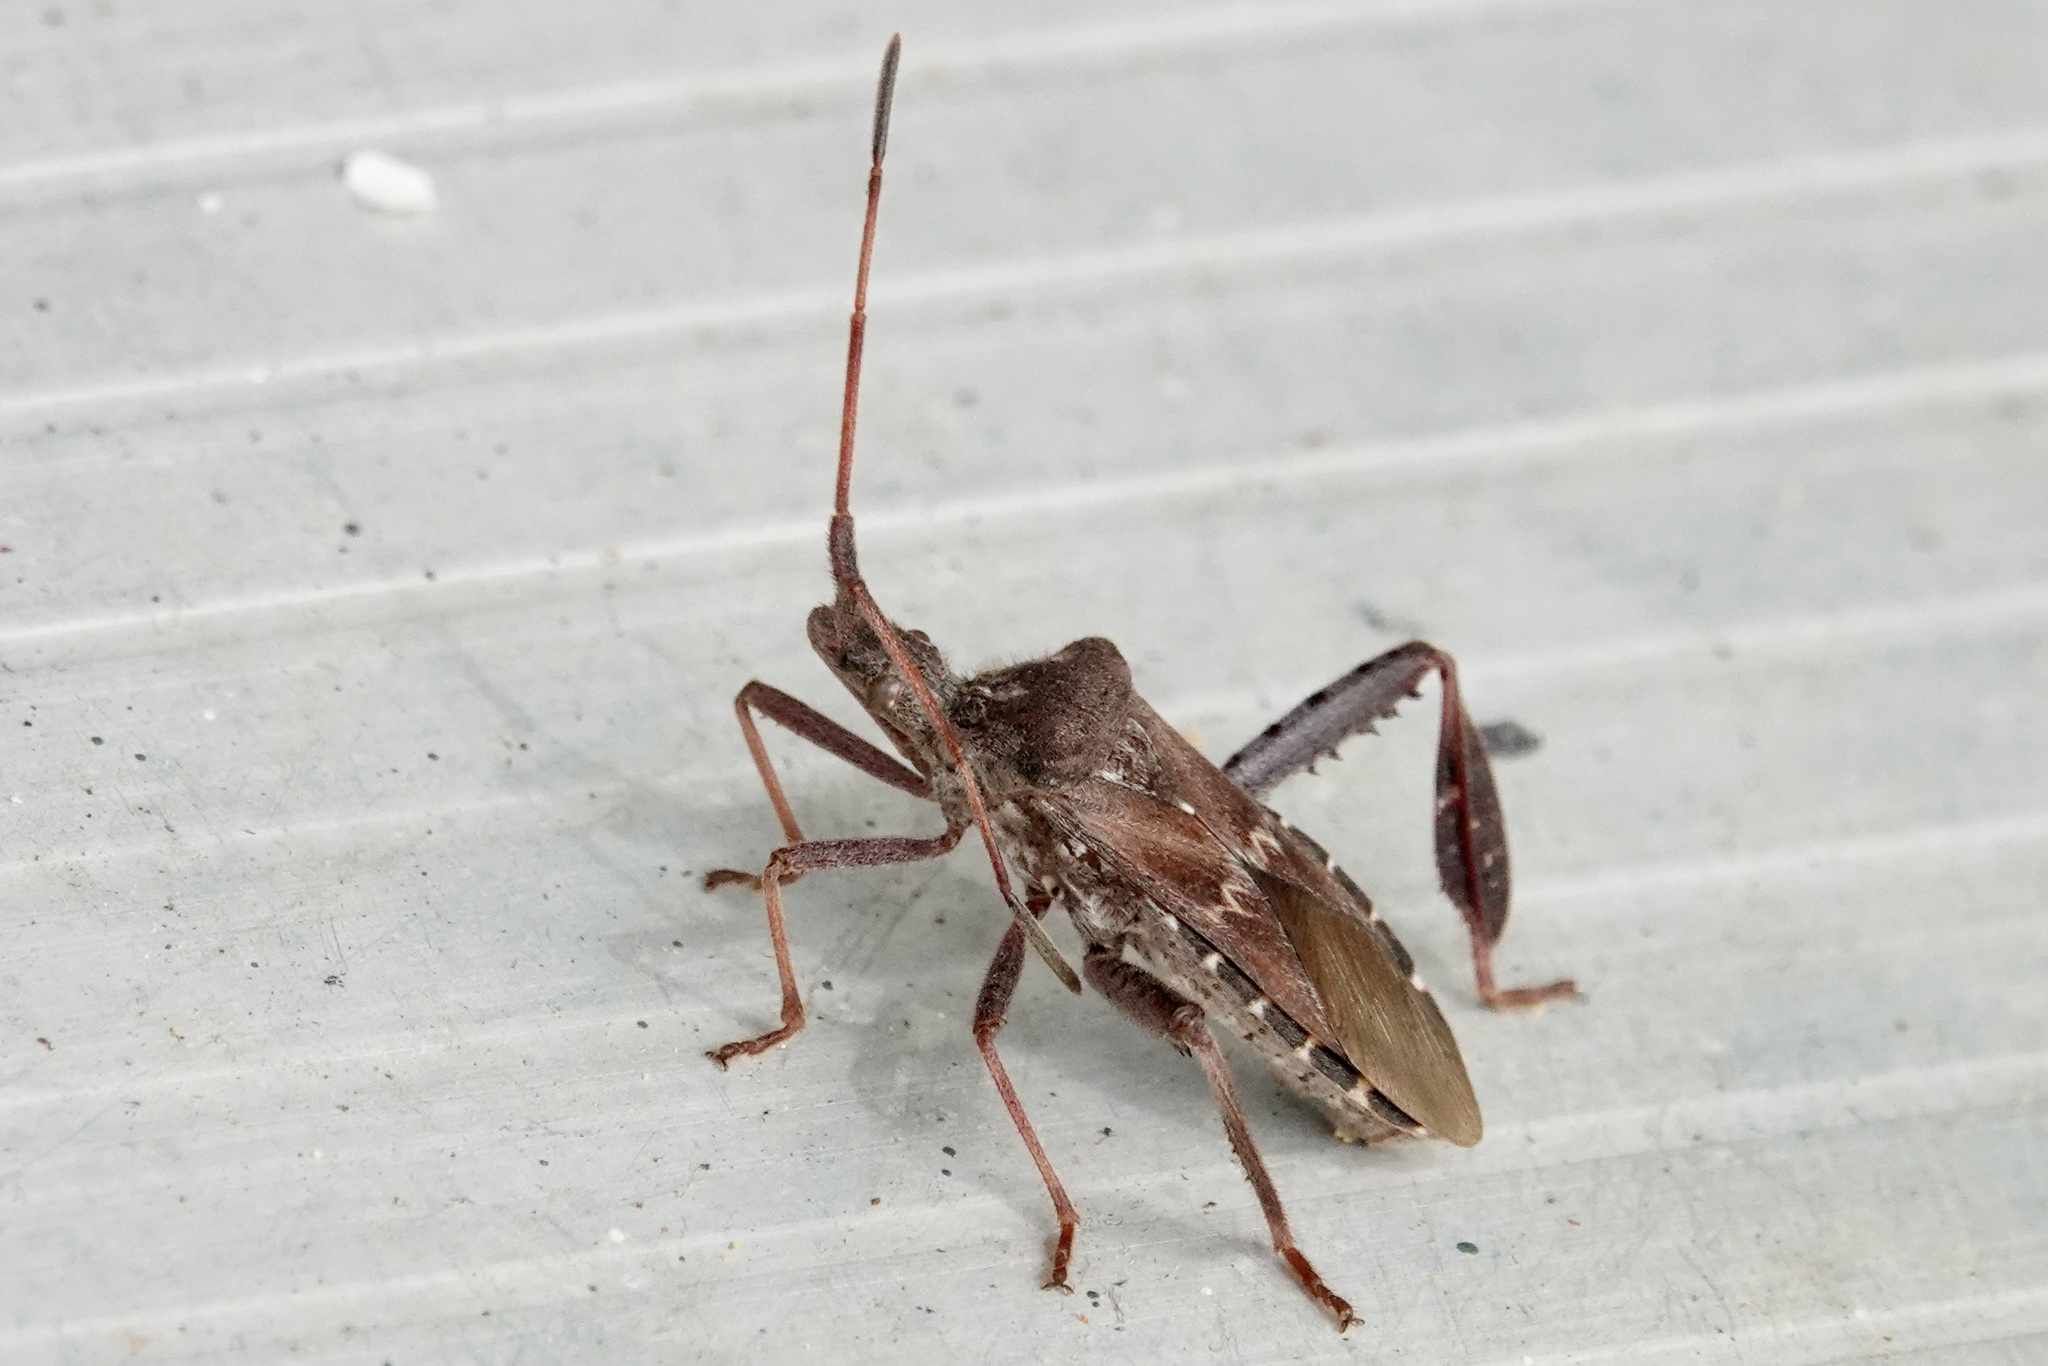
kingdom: Animalia
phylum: Arthropoda
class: Insecta
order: Hemiptera
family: Coreidae
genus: Leptoglossus
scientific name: Leptoglossus corculus
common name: Southern pine seed bug
